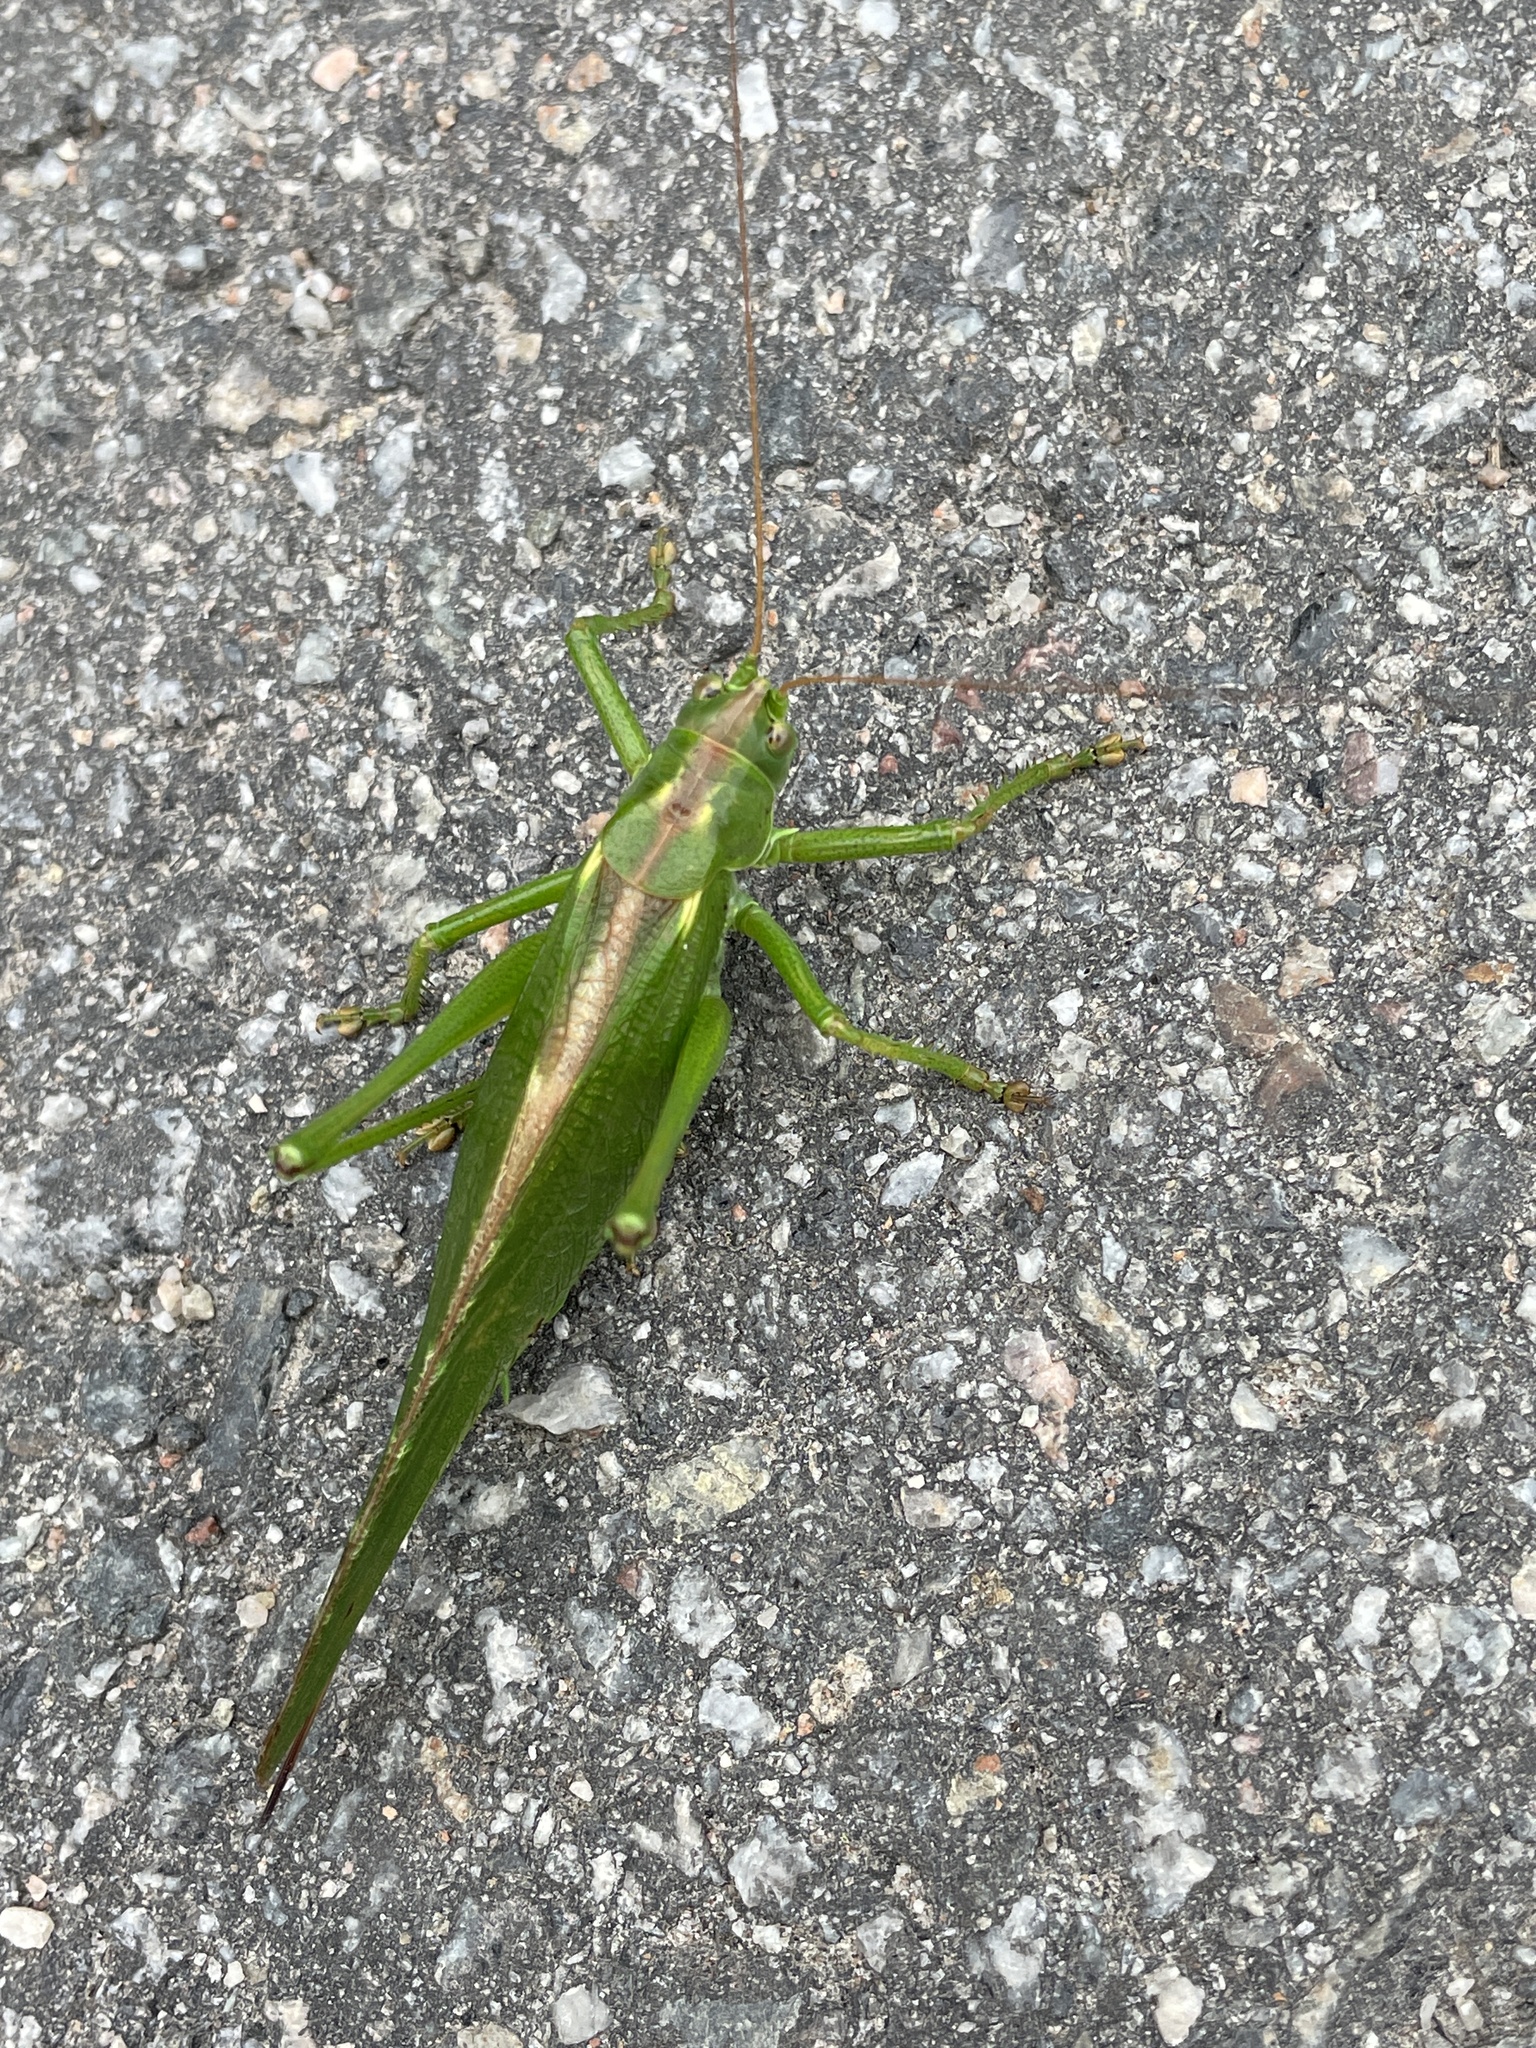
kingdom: Animalia
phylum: Arthropoda
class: Insecta
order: Orthoptera
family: Tettigoniidae
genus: Tettigonia
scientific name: Tettigonia viridissima
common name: Great green bush-cricket
